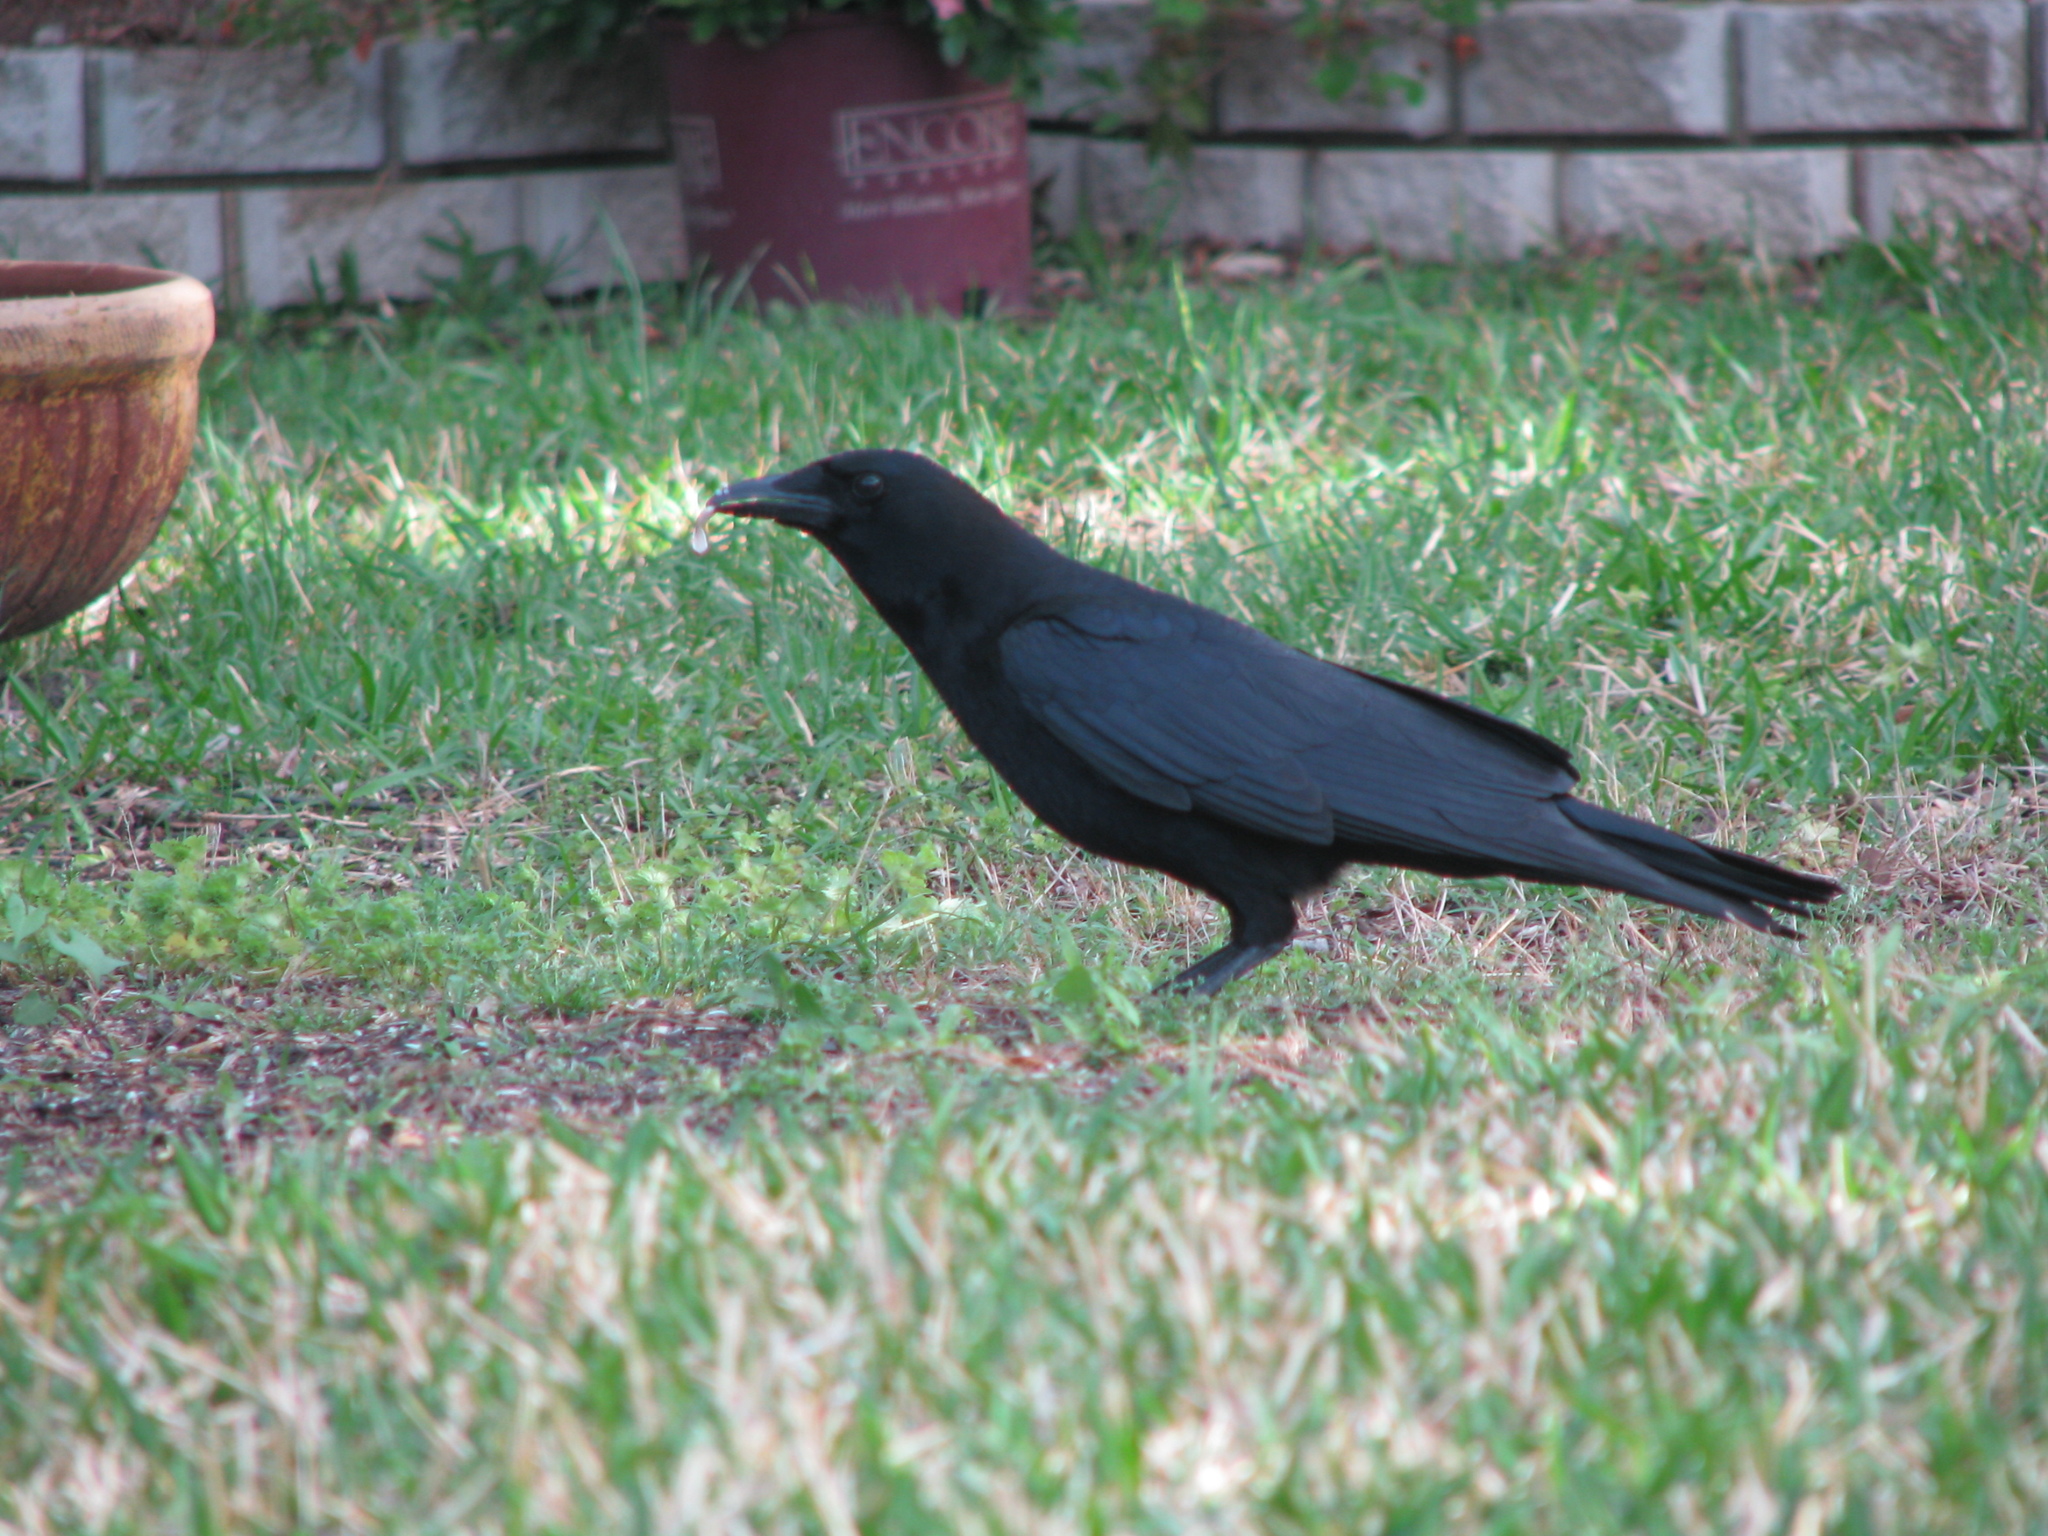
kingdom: Animalia
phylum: Chordata
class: Aves
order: Passeriformes
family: Corvidae
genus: Corvus
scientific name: Corvus brachyrhynchos
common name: American crow
